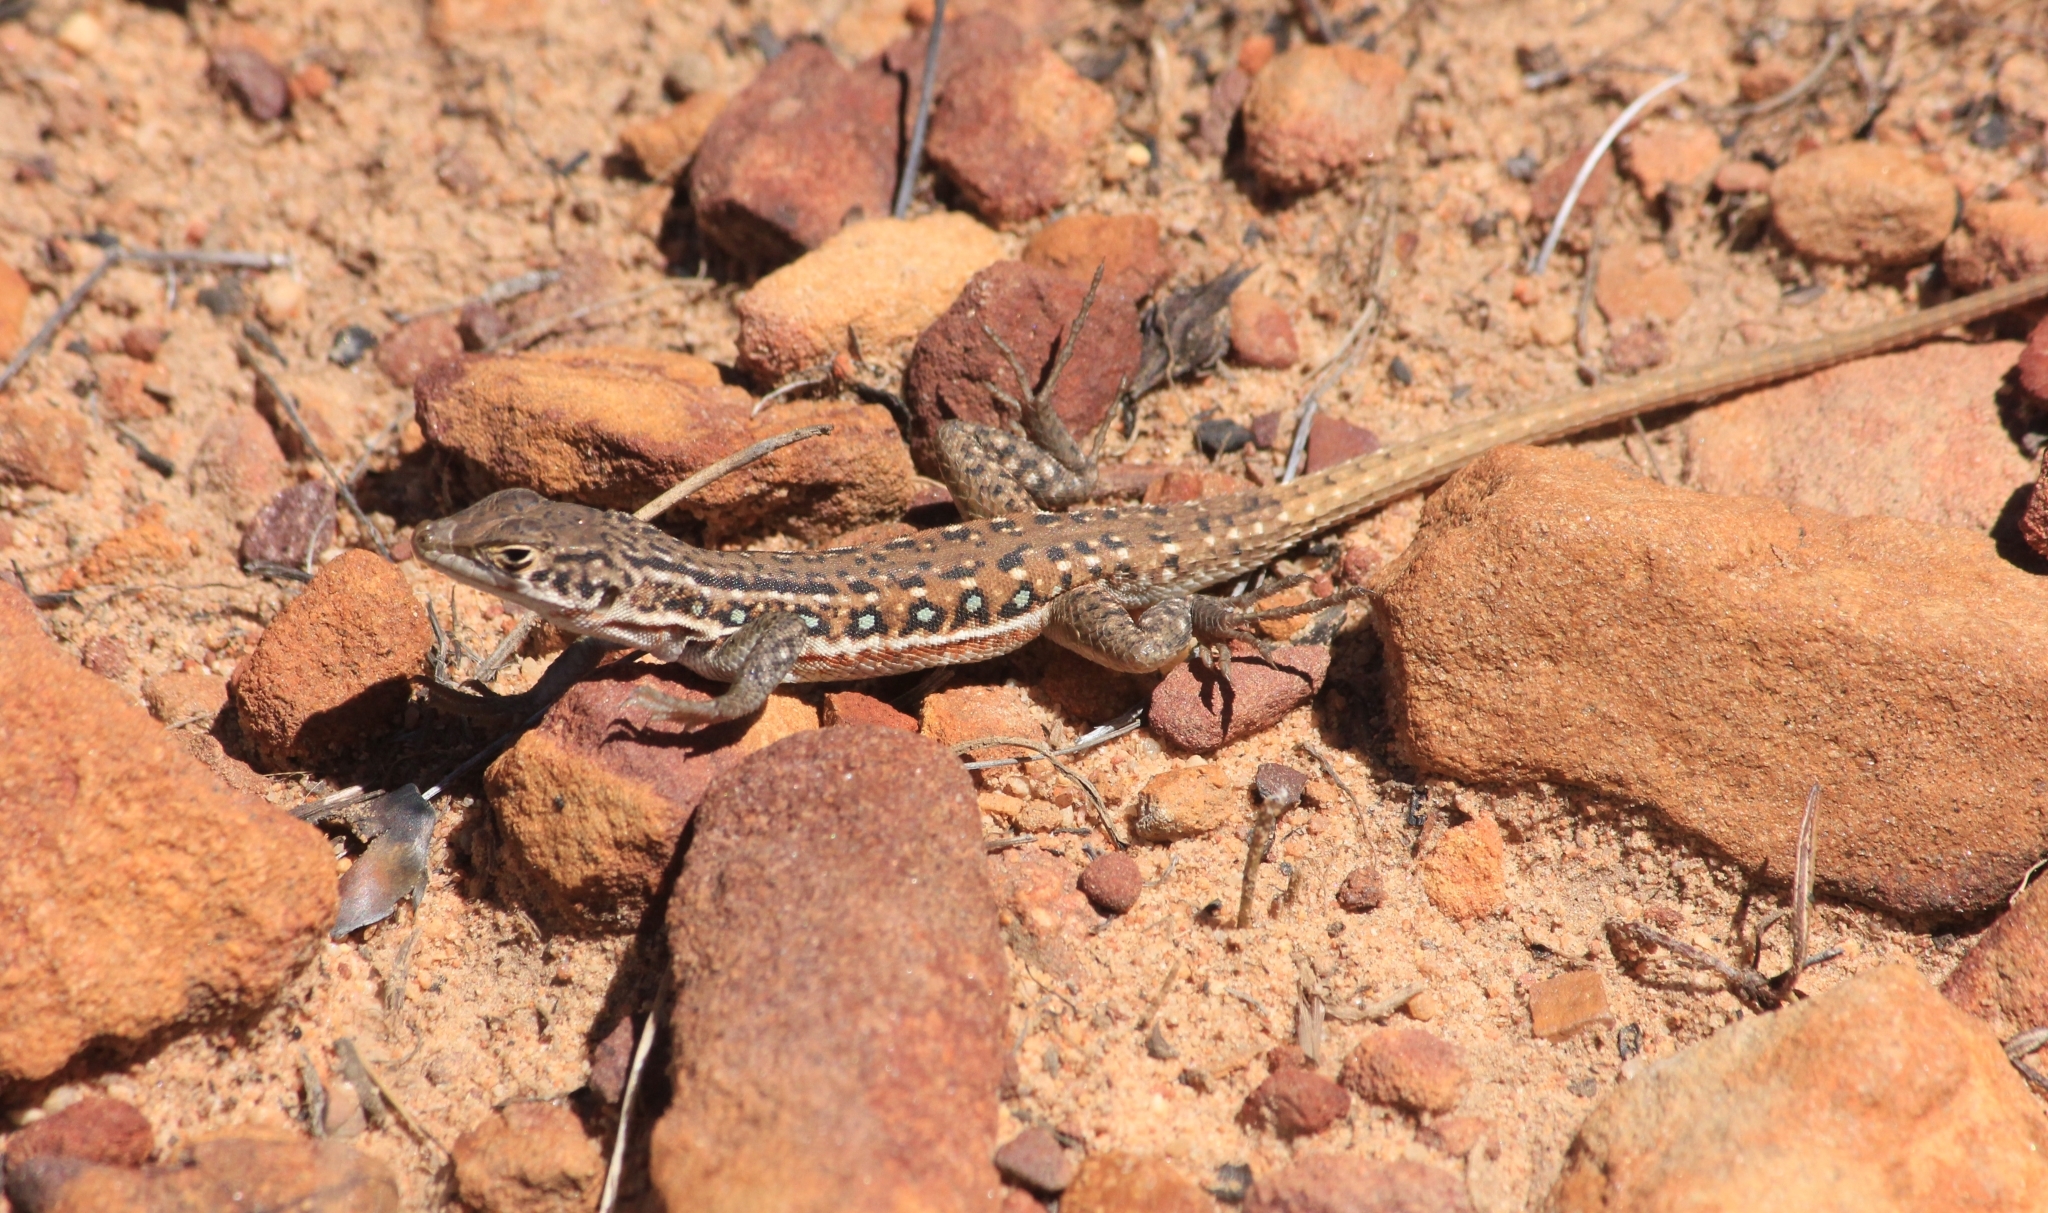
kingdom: Animalia
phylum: Chordata
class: Squamata
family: Lacertidae
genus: Pedioplanis
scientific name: Pedioplanis lineoocellata
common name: Spotted sand lizard
